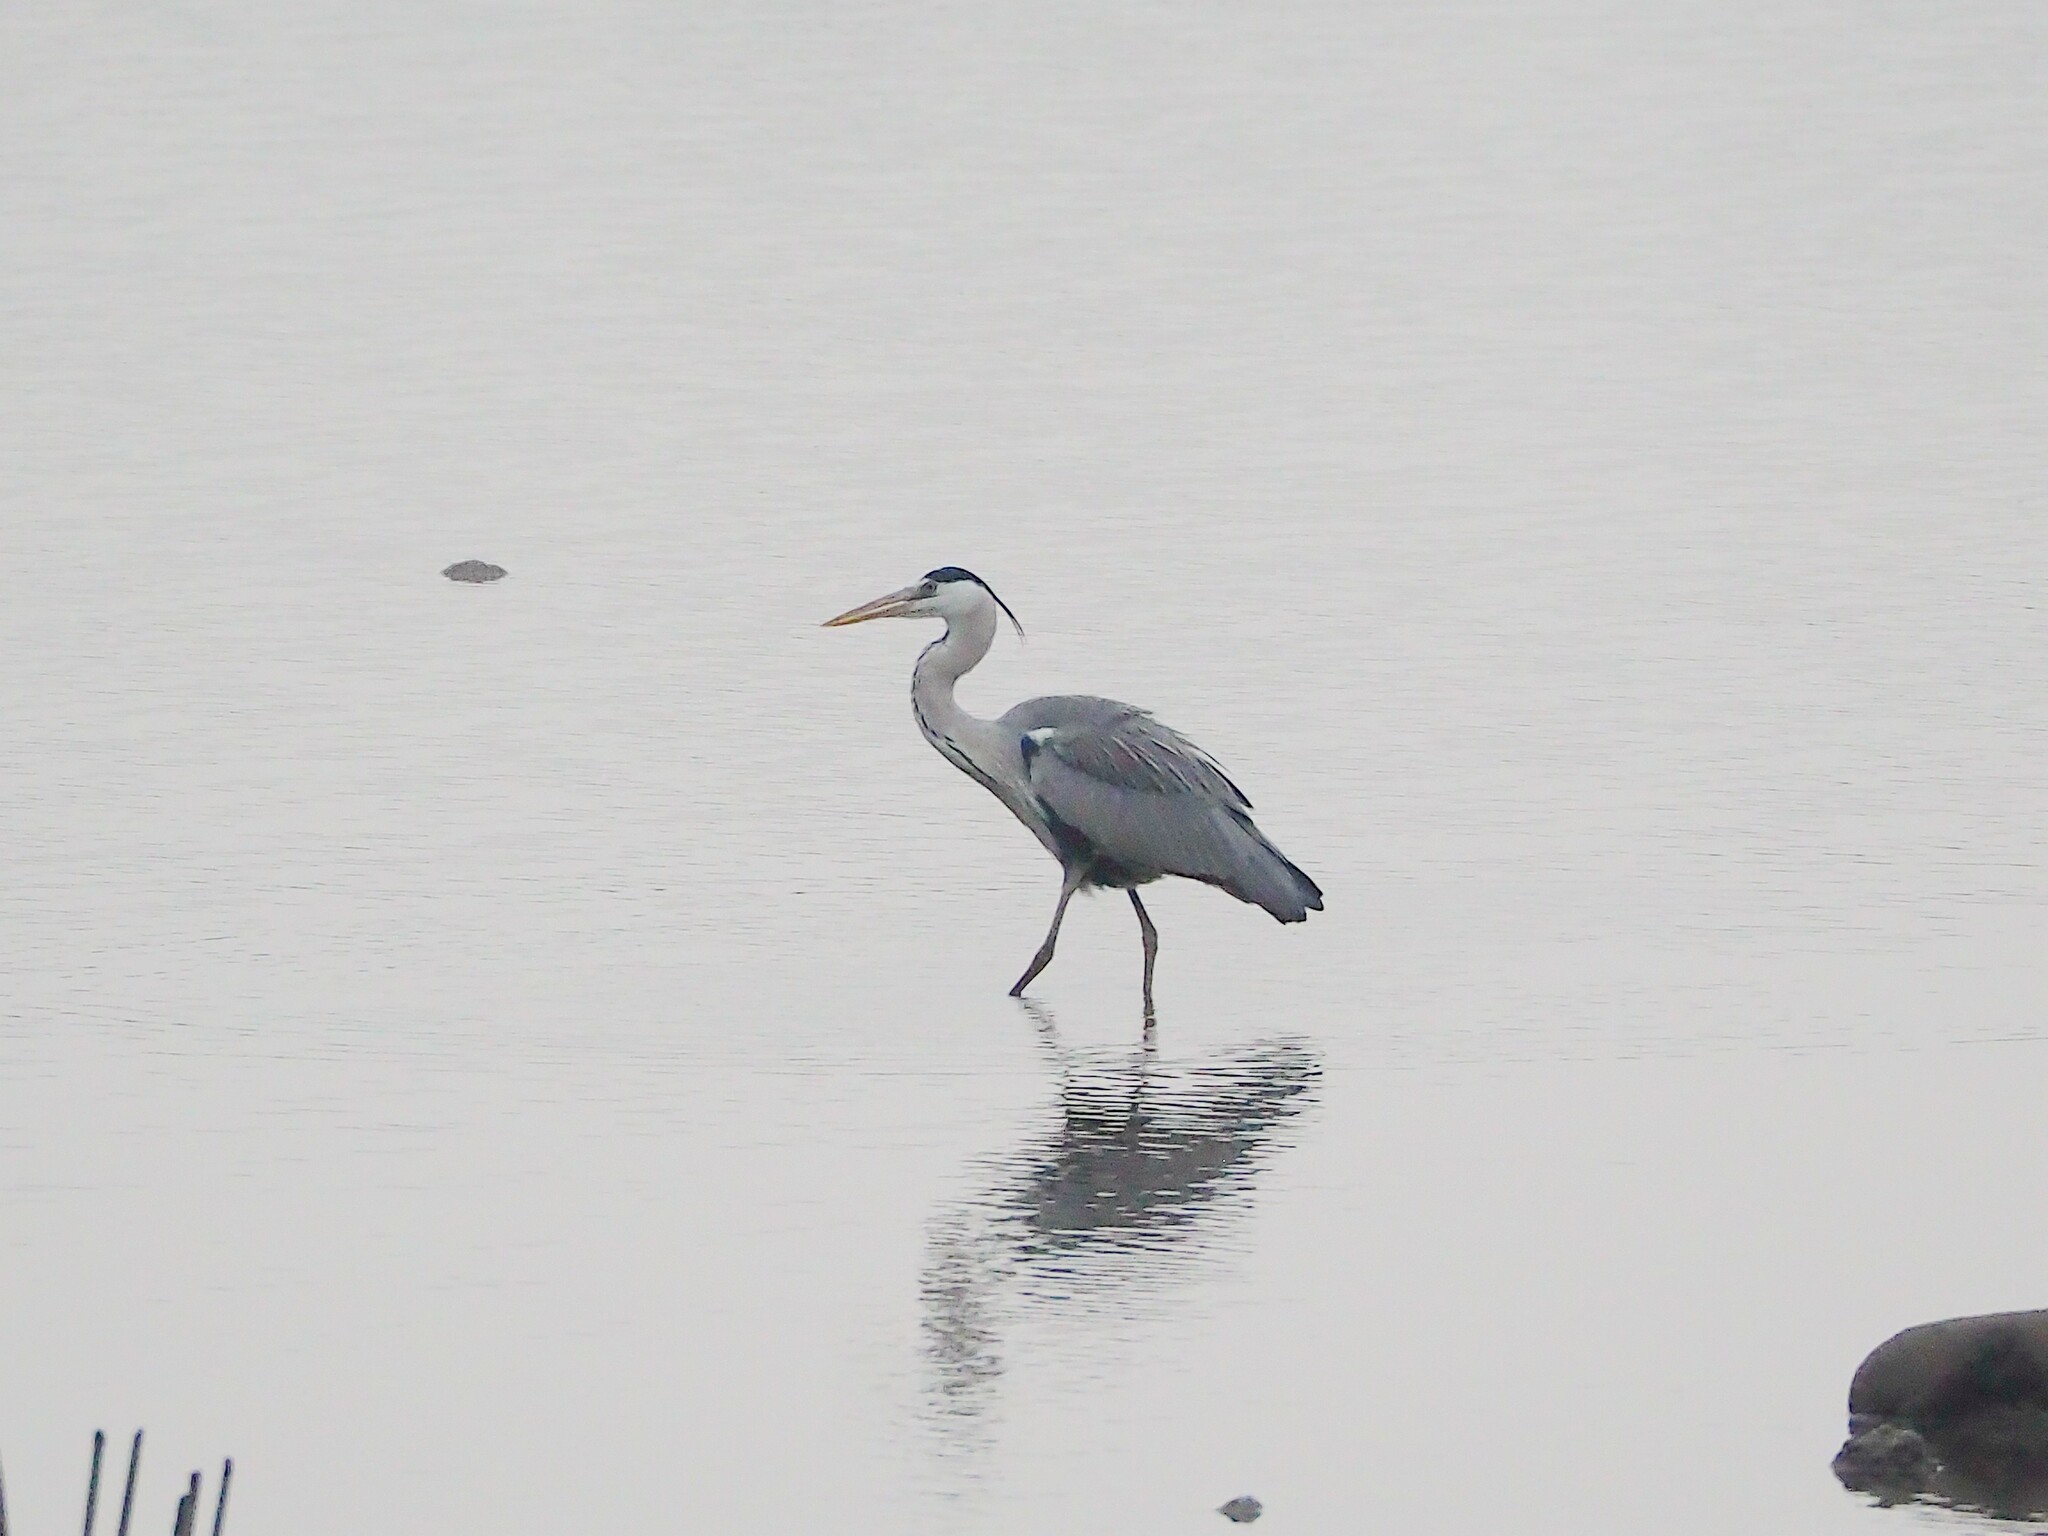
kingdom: Animalia
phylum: Chordata
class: Aves
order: Pelecaniformes
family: Ardeidae
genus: Ardea
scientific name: Ardea cinerea
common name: Grey heron
